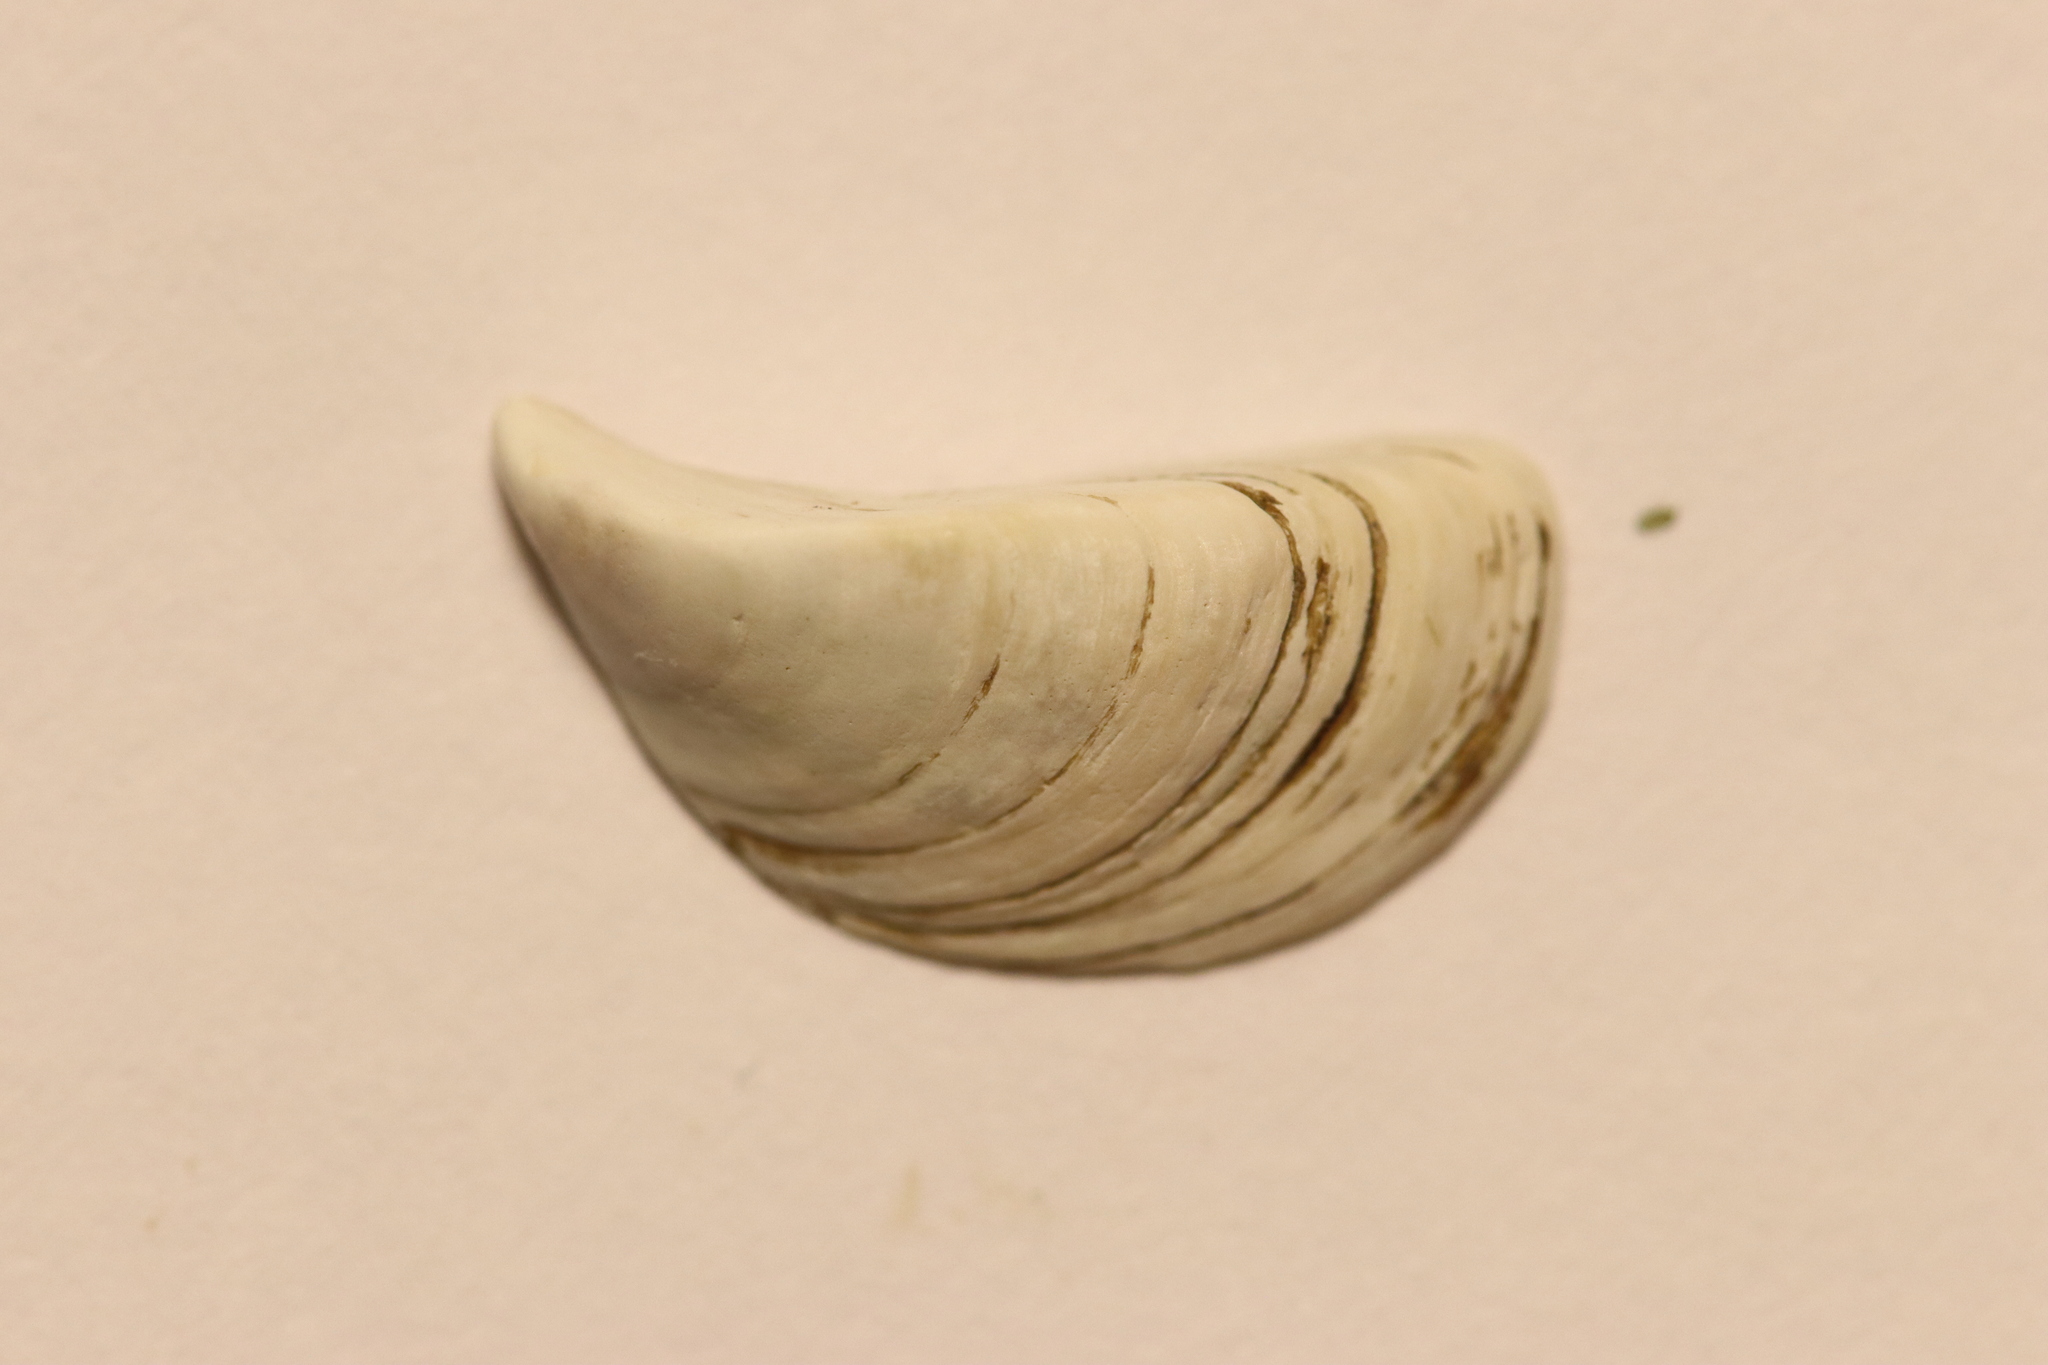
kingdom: Animalia
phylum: Mollusca
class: Bivalvia
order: Myida
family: Dreissenidae
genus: Dreissena
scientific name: Dreissena polymorpha
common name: Zebra mussel
